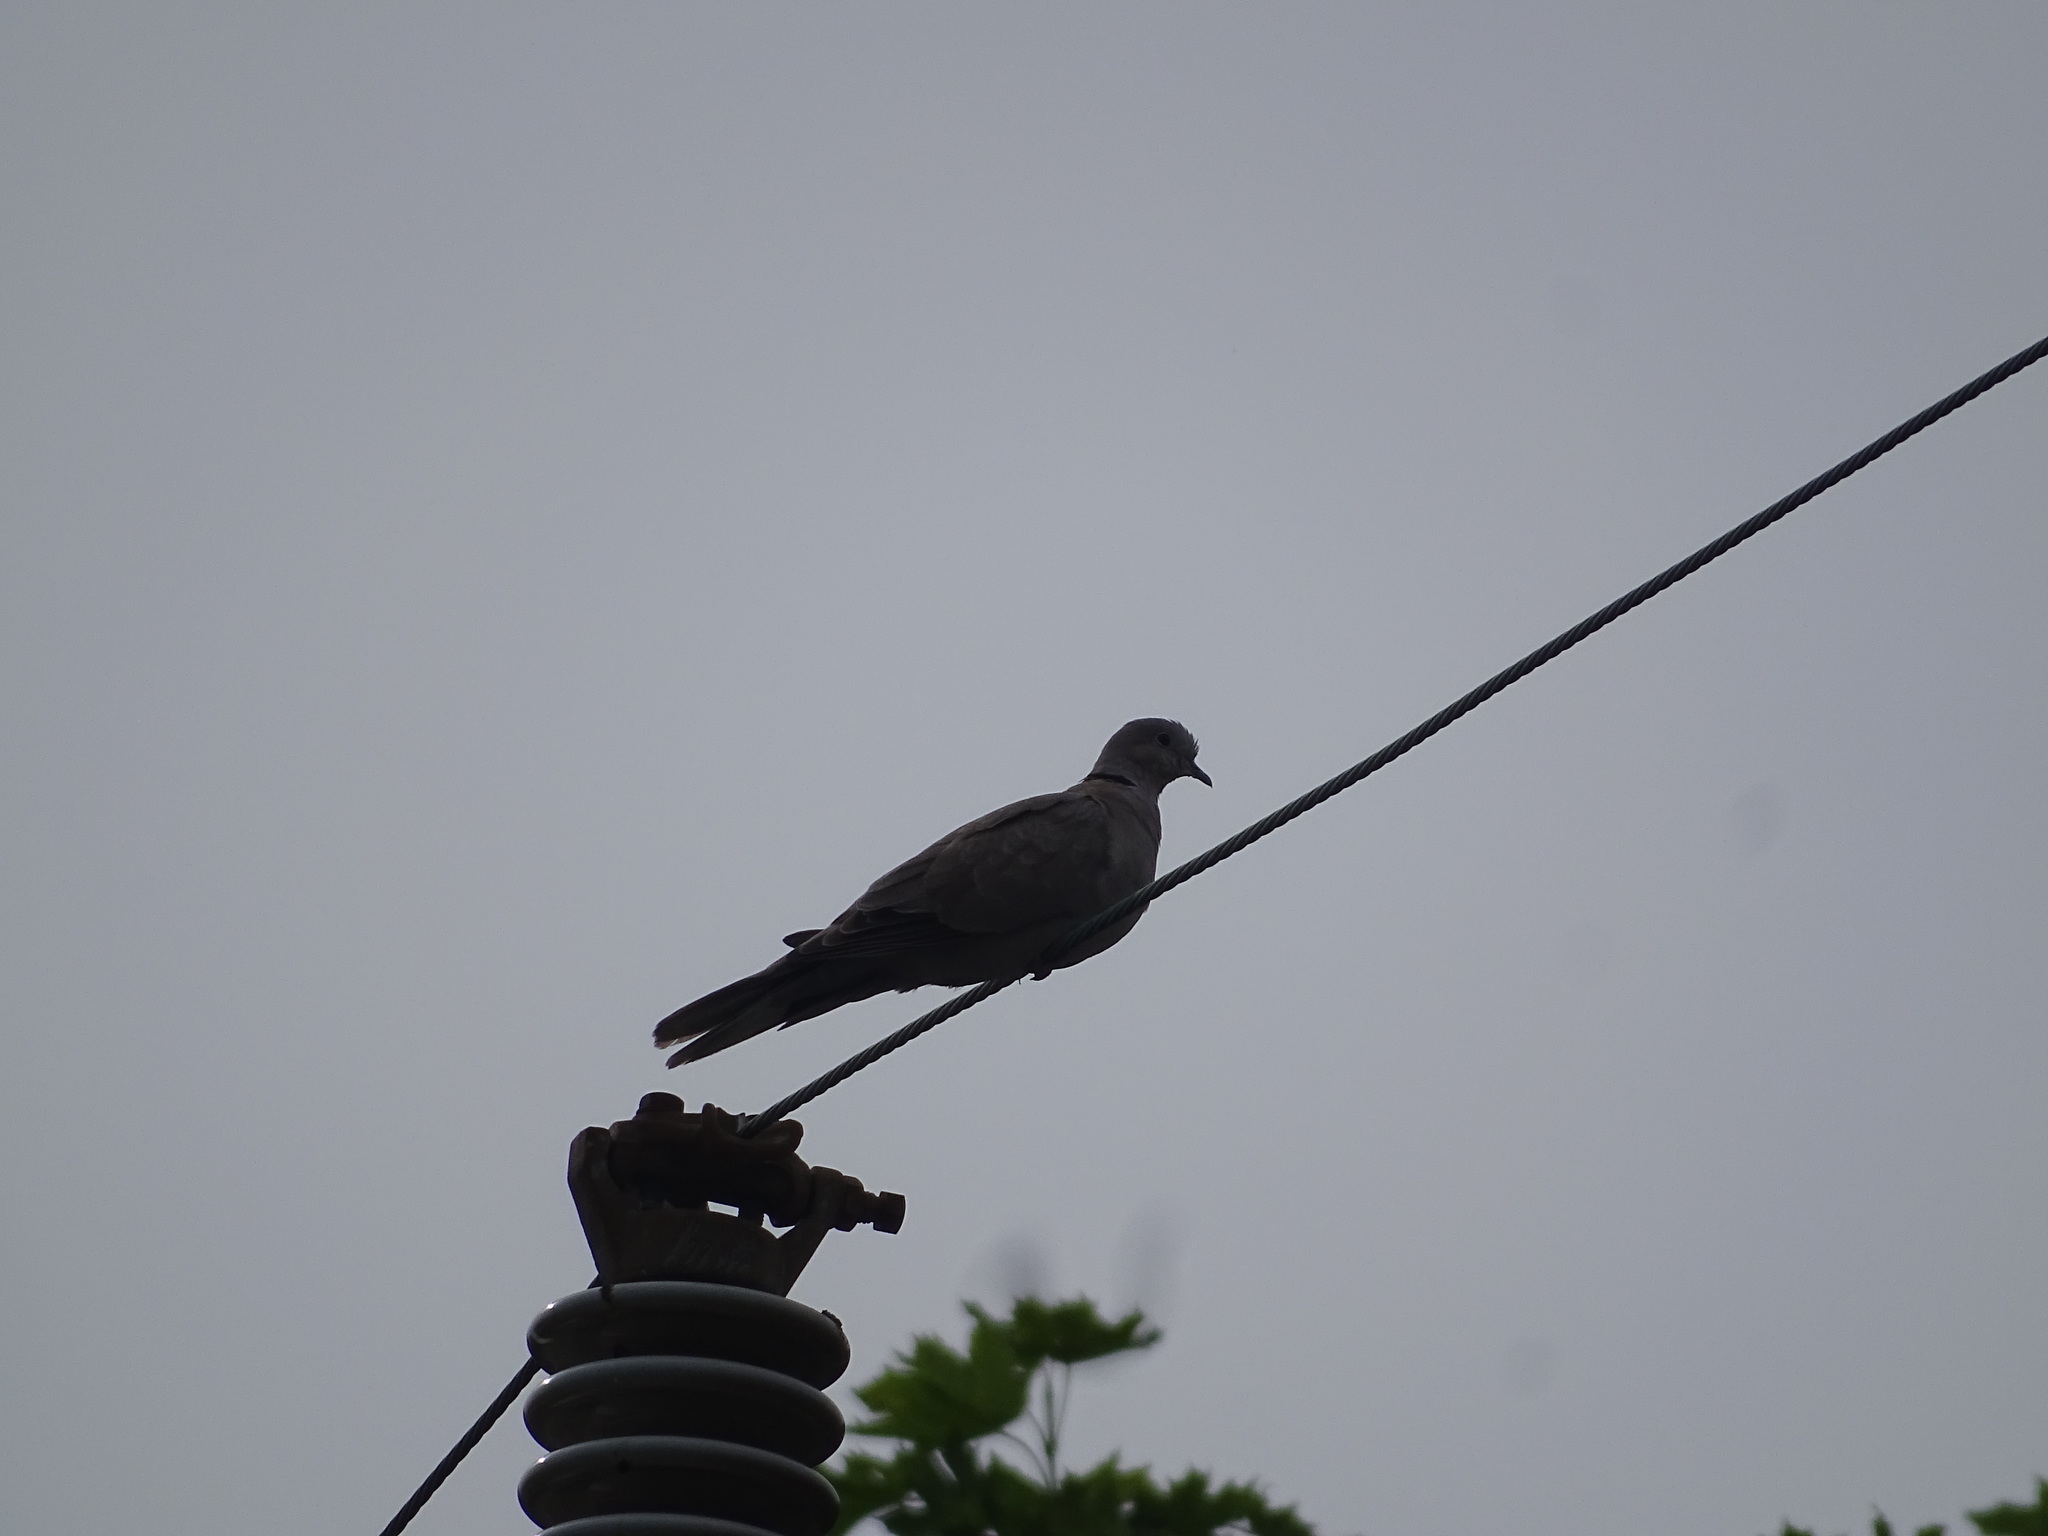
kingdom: Animalia
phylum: Chordata
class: Aves
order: Columbiformes
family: Columbidae
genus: Streptopelia
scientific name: Streptopelia decaocto
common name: Eurasian collared dove
